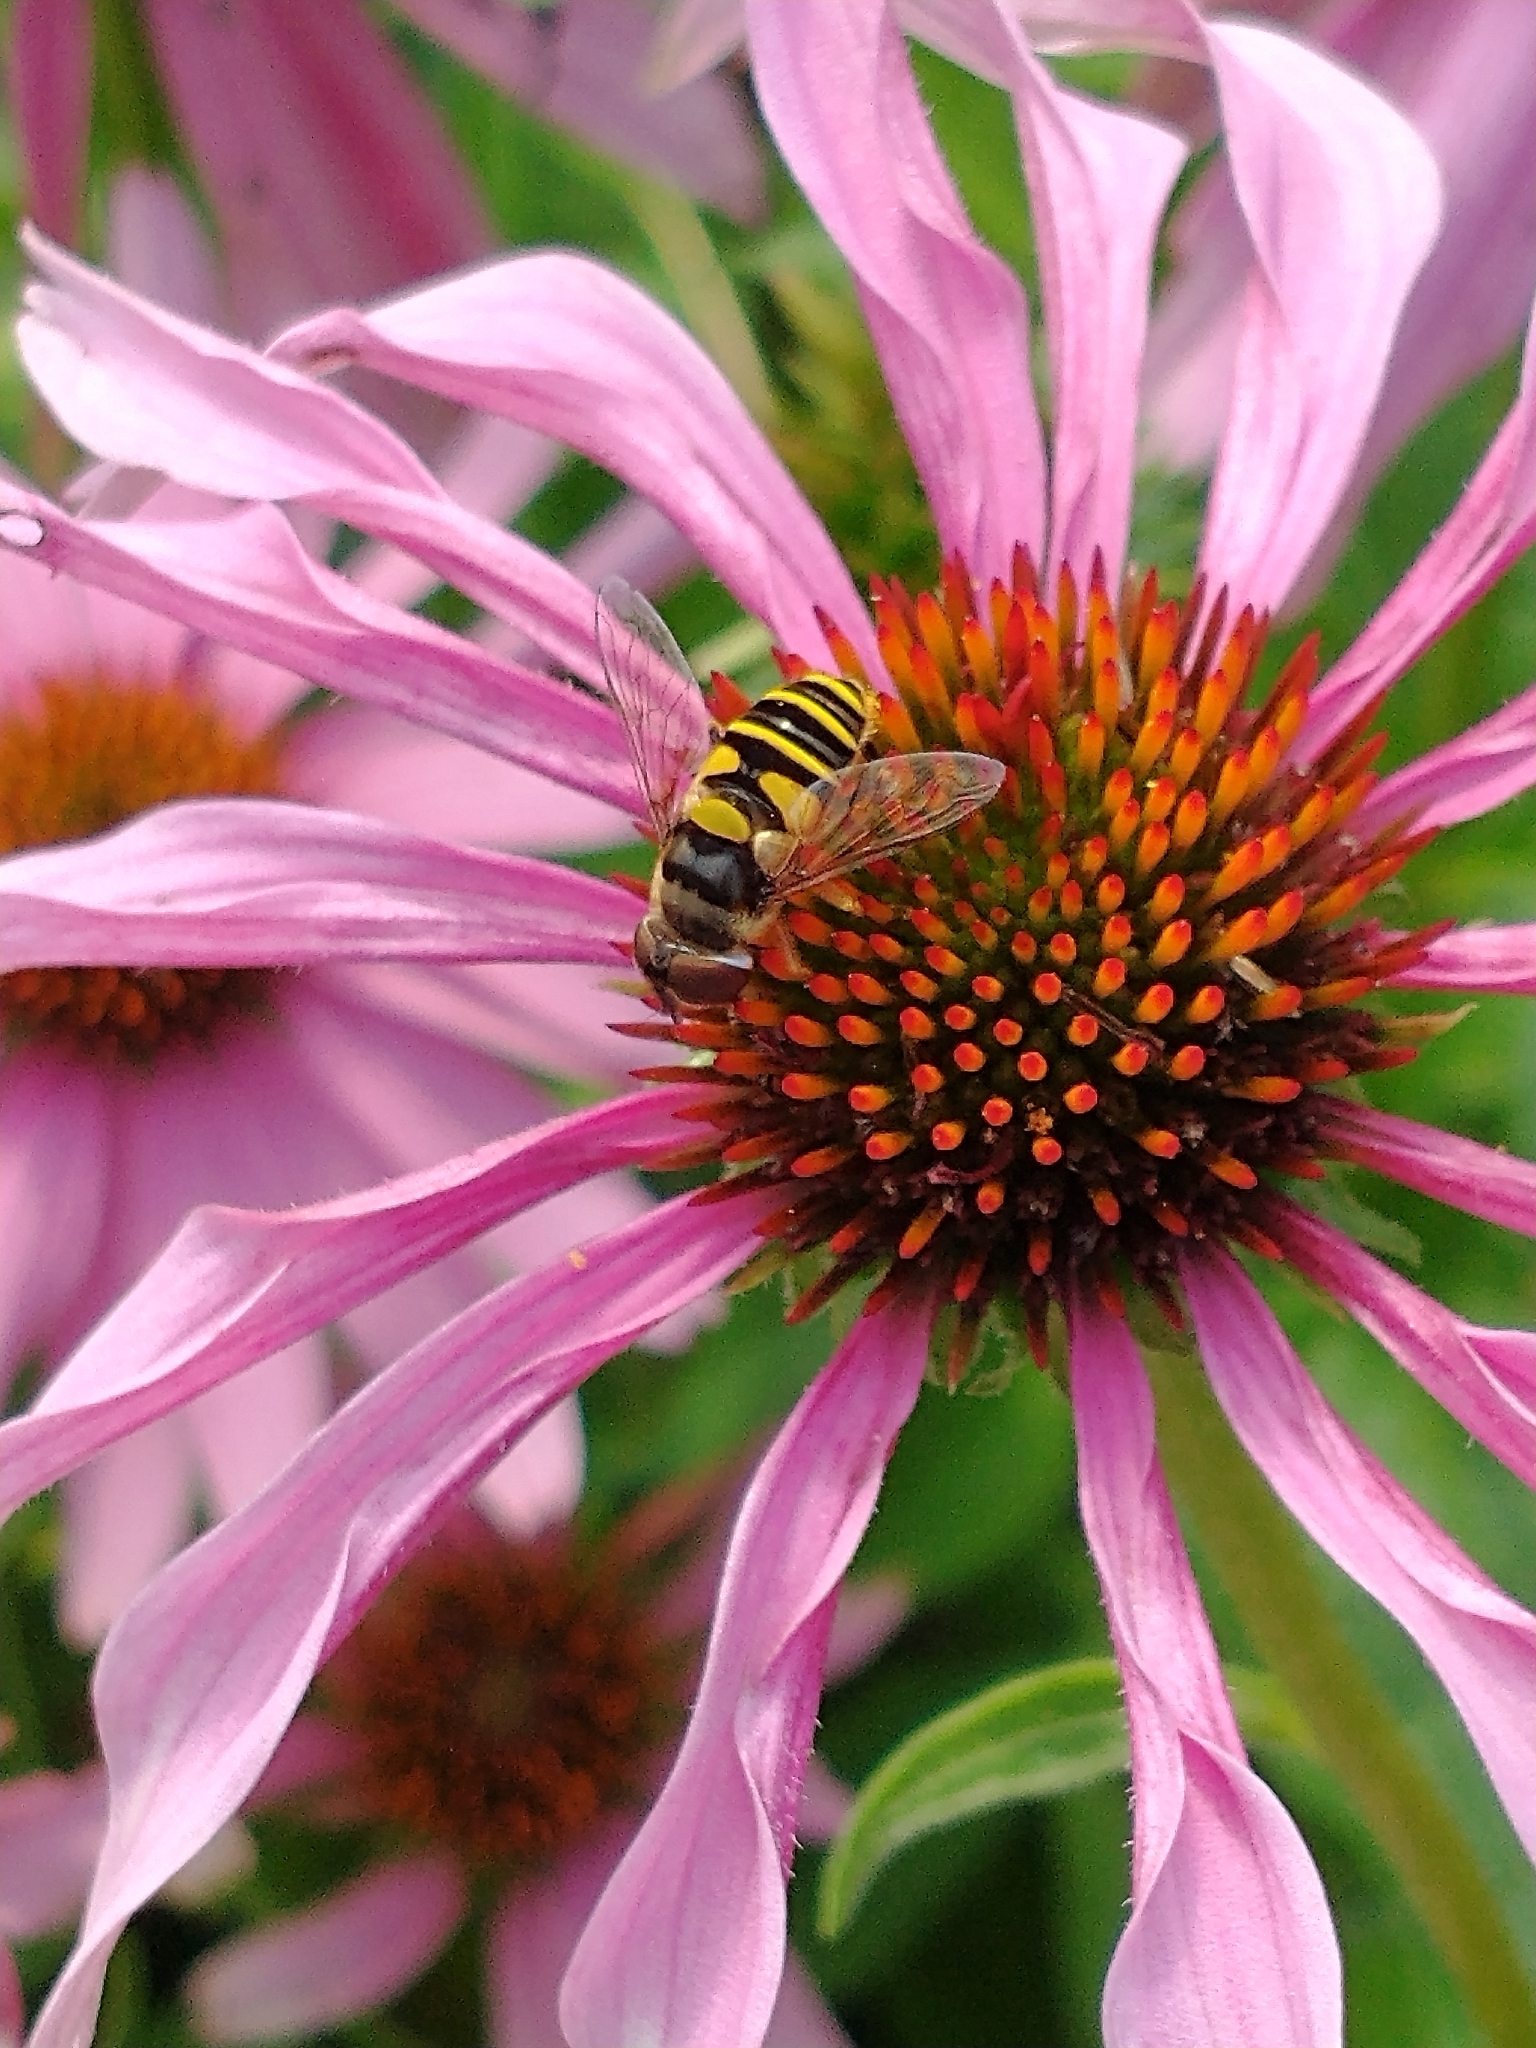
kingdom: Animalia
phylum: Arthropoda
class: Insecta
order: Diptera
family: Syrphidae
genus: Eristalis
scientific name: Eristalis transversa
